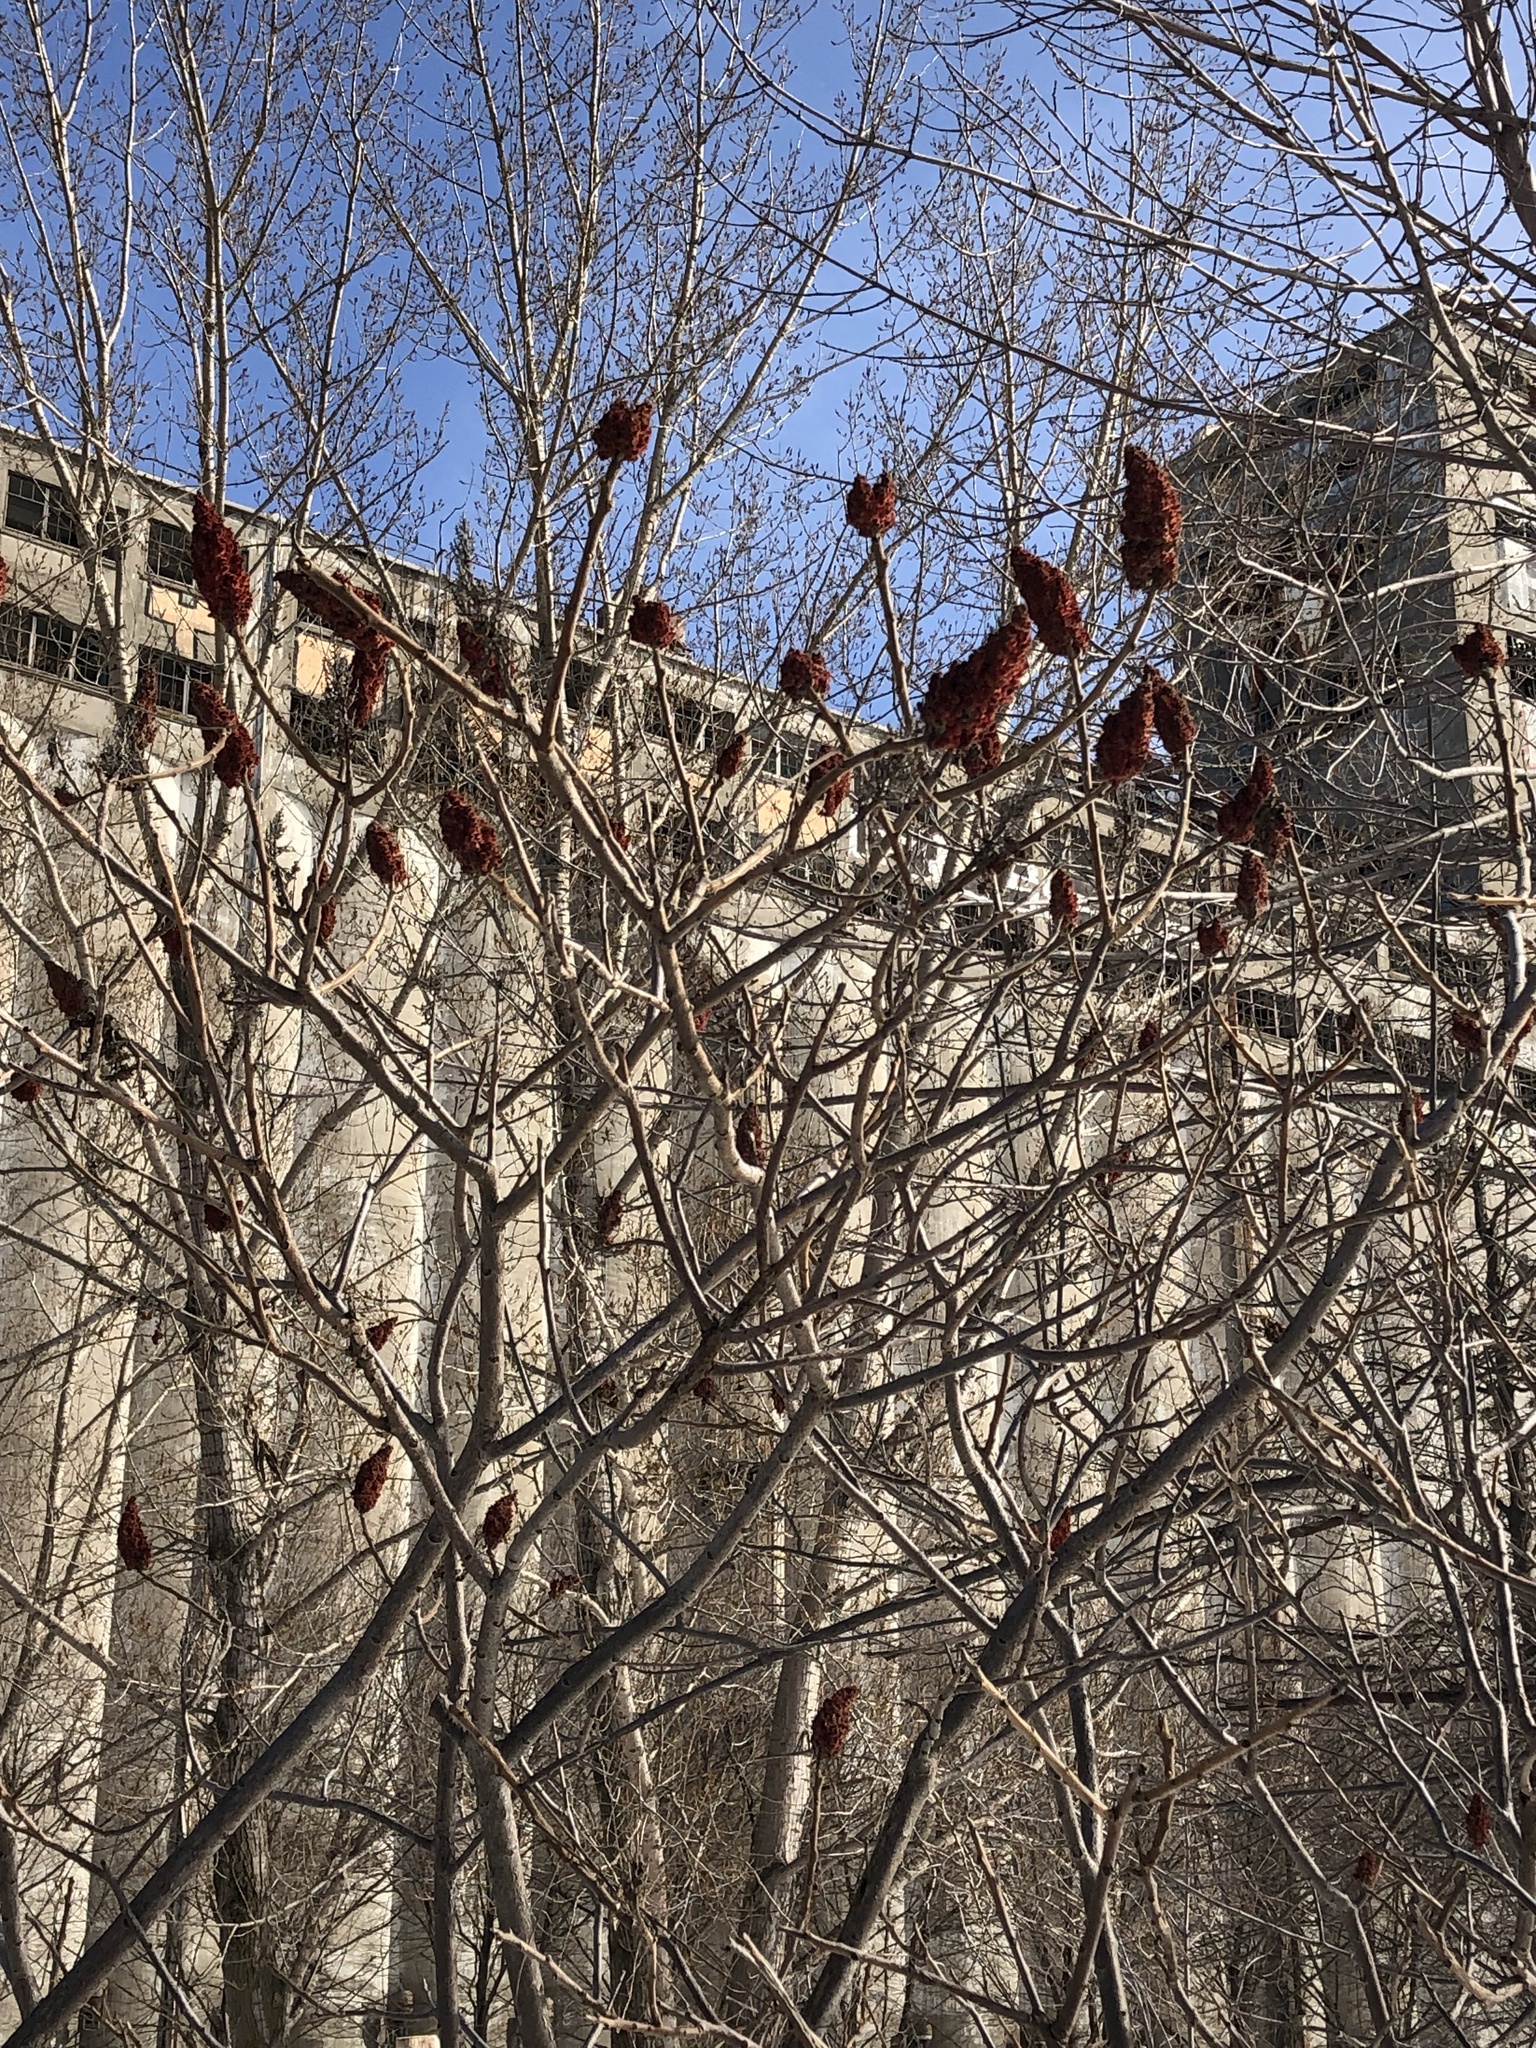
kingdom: Plantae
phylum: Tracheophyta
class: Magnoliopsida
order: Sapindales
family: Anacardiaceae
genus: Rhus
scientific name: Rhus typhina
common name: Staghorn sumac
